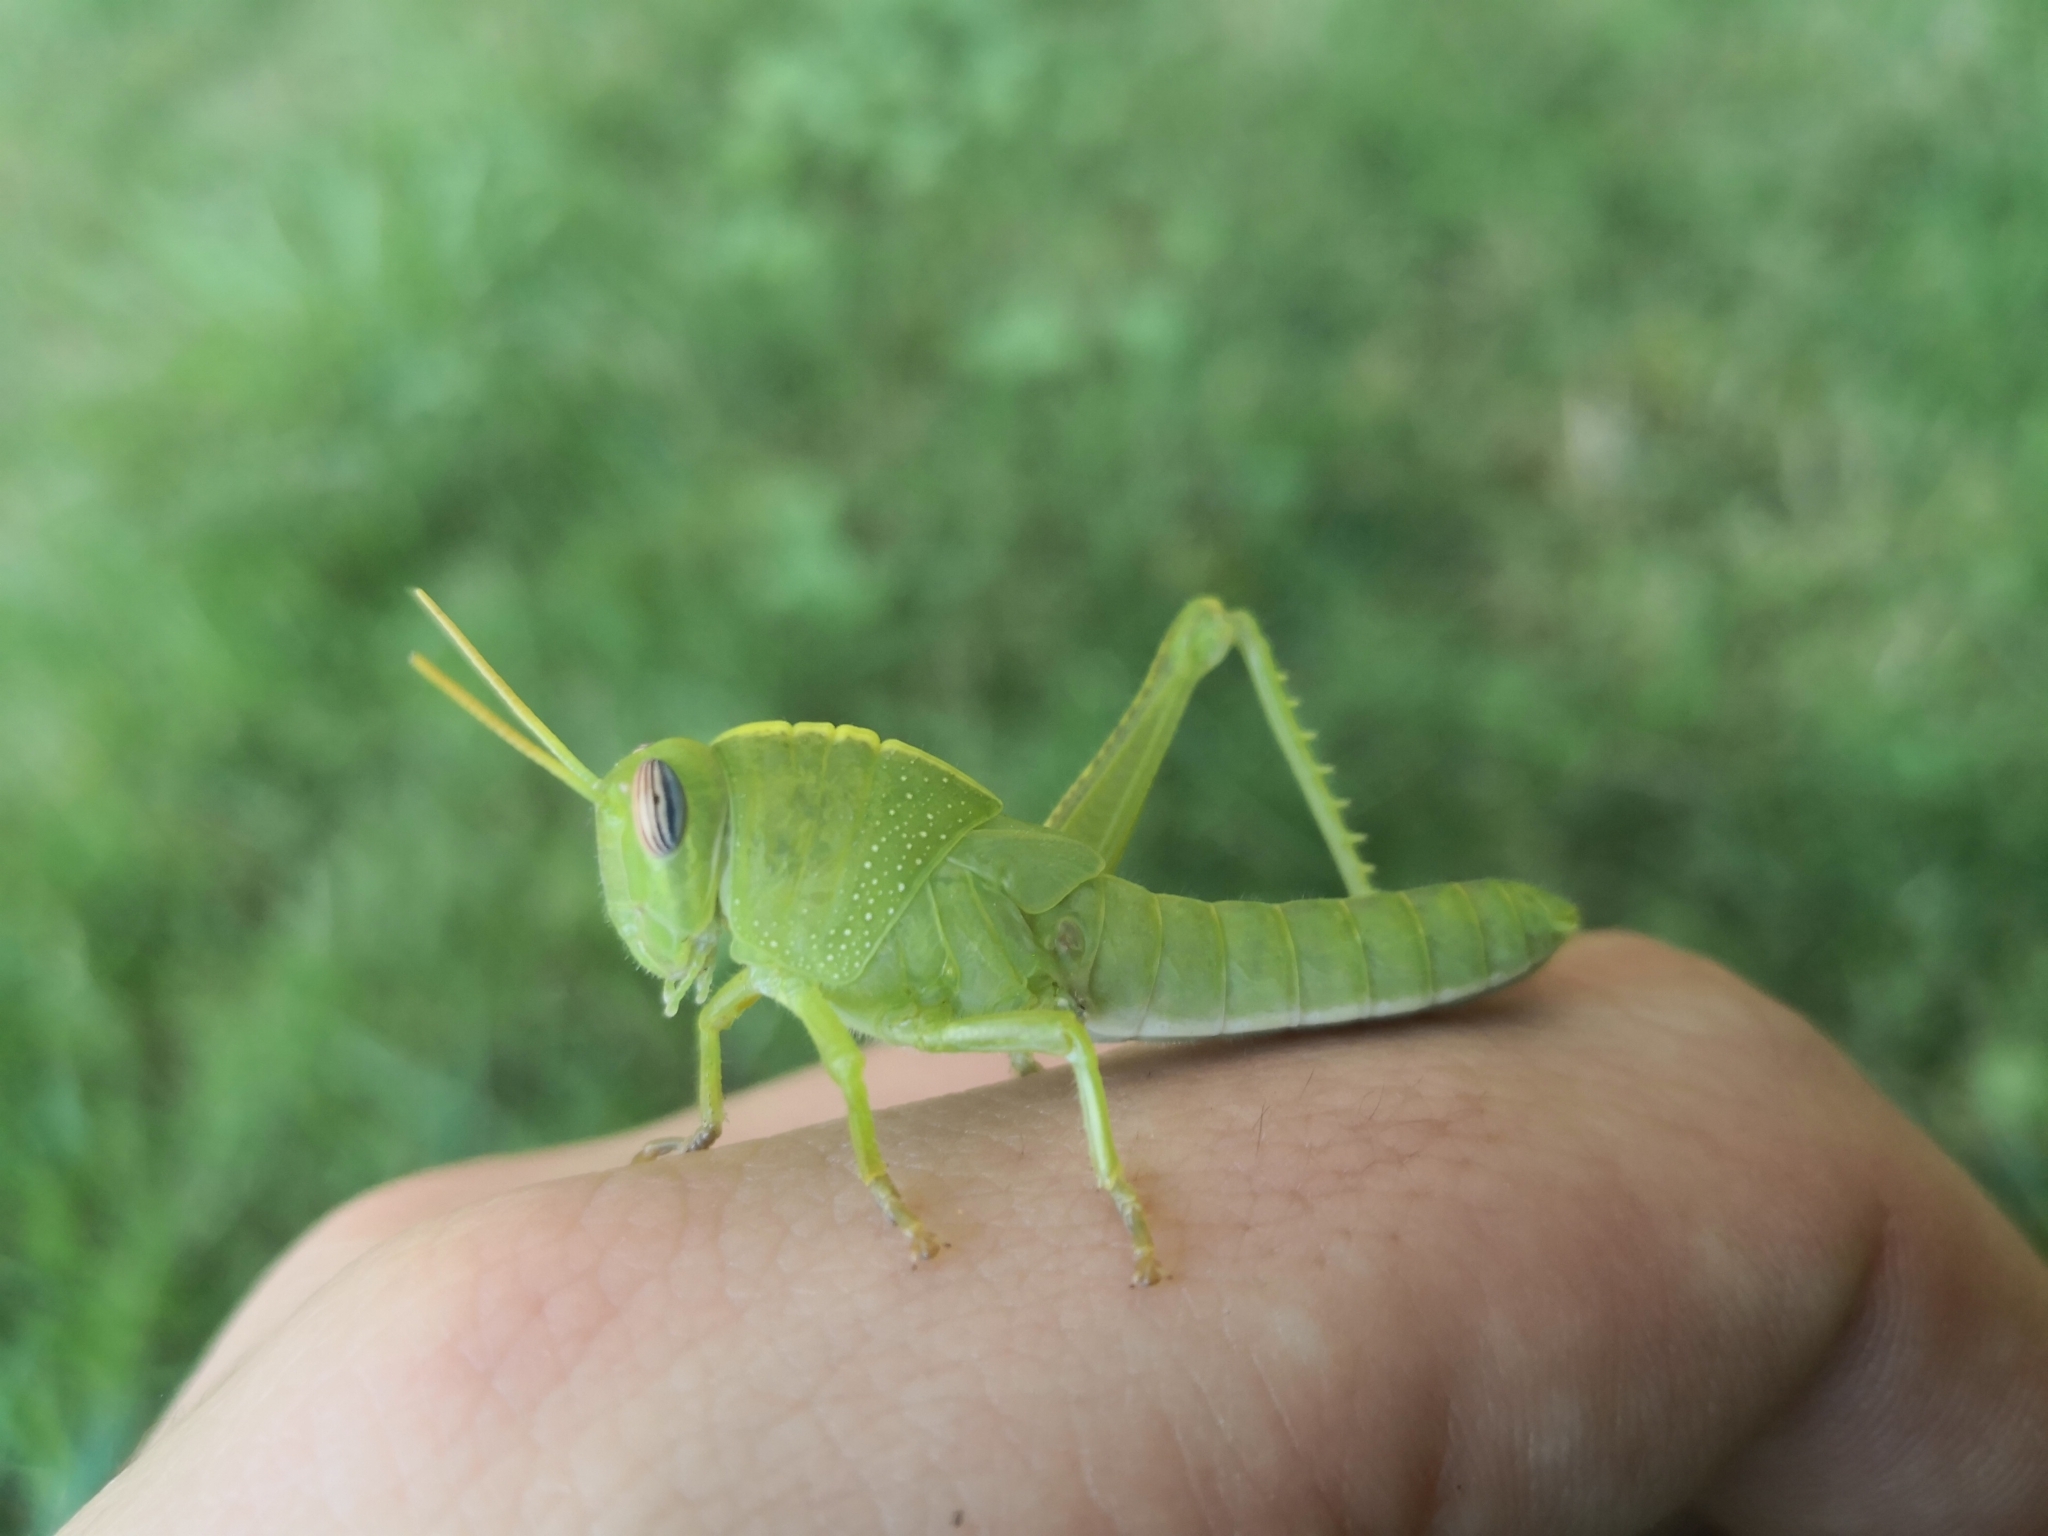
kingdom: Animalia
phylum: Arthropoda
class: Insecta
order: Orthoptera
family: Acrididae
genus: Anacridium
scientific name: Anacridium aegyptium
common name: Egyptian grasshopper
